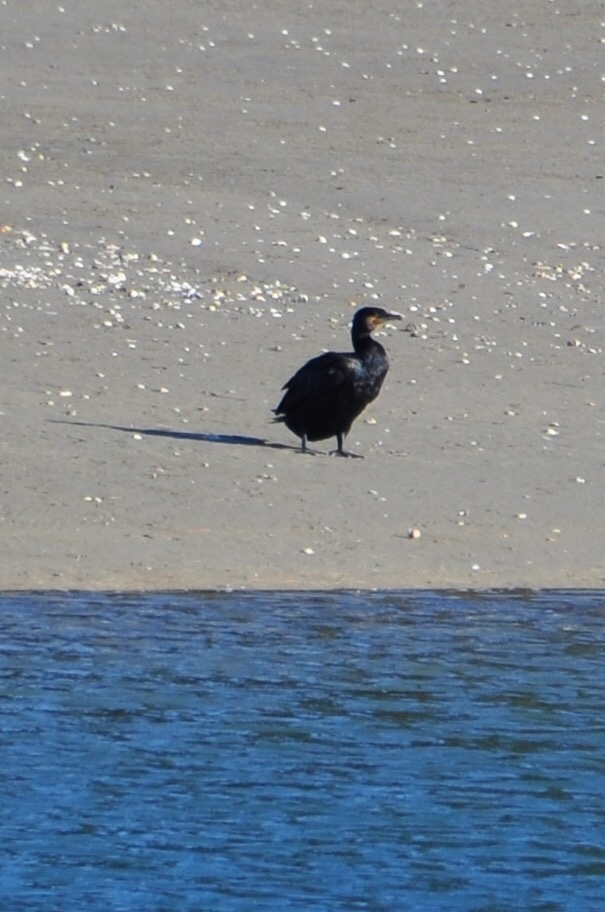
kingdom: Animalia
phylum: Chordata
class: Aves
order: Suliformes
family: Phalacrocoracidae
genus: Phalacrocorax
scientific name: Phalacrocorax carbo
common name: Great cormorant
